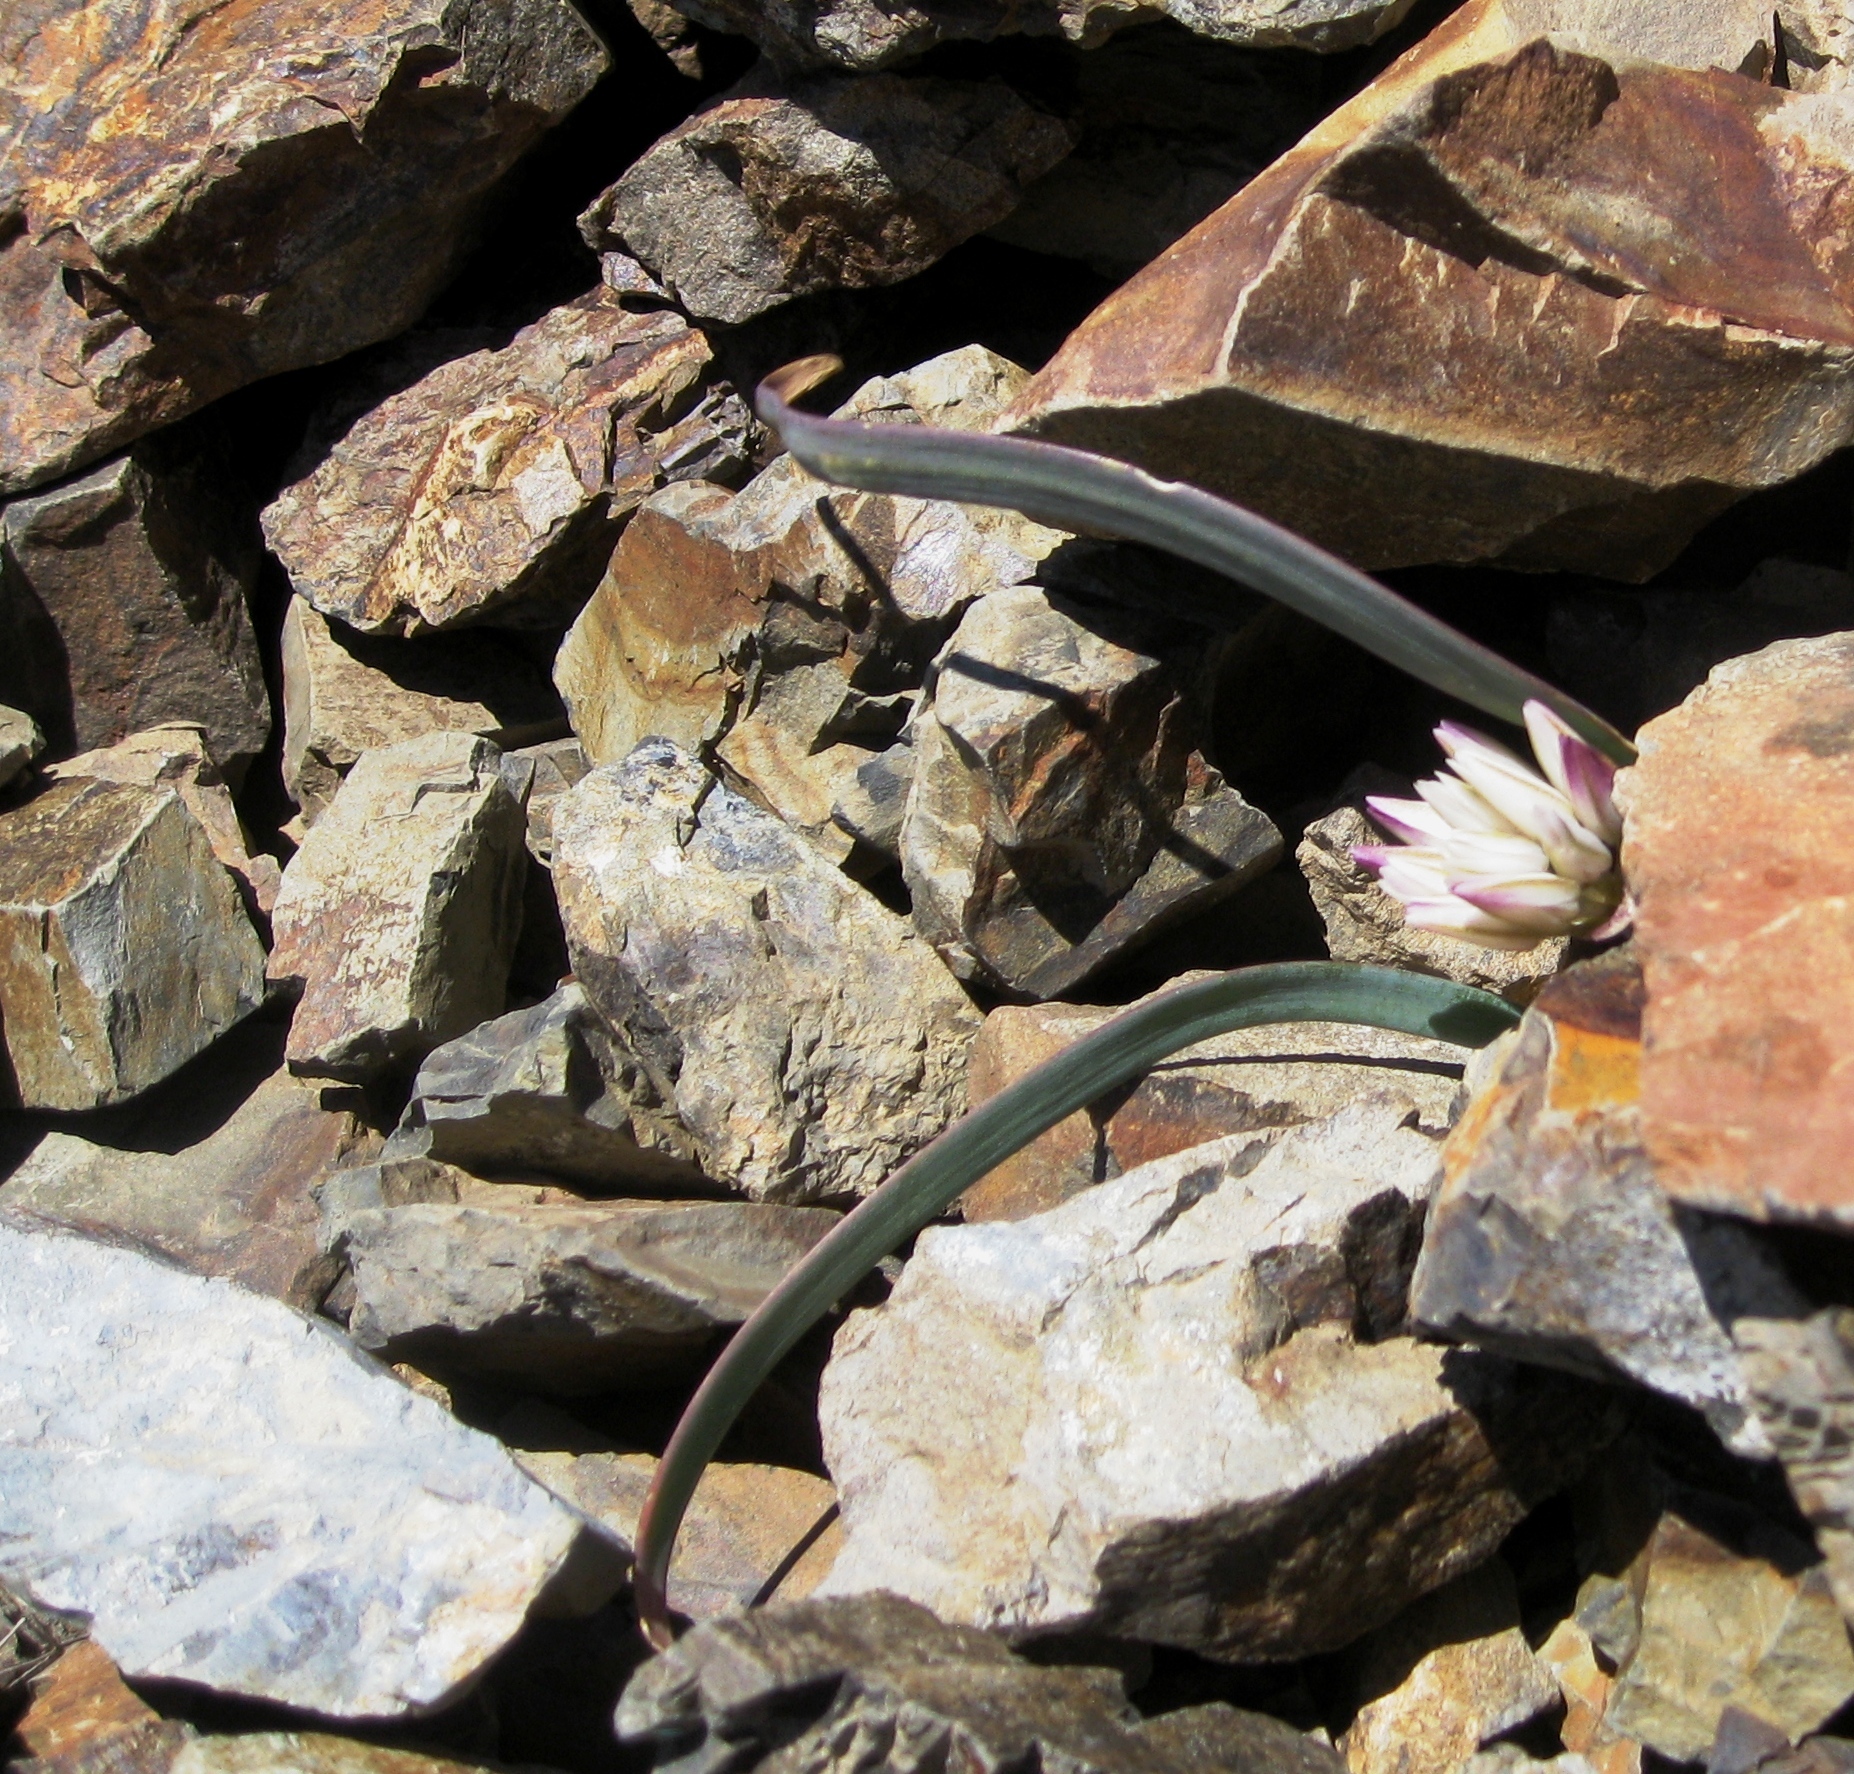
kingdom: Plantae
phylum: Tracheophyta
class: Liliopsida
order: Asparagales
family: Amaryllidaceae
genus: Allium
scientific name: Allium crenulatum
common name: Olympic onion
